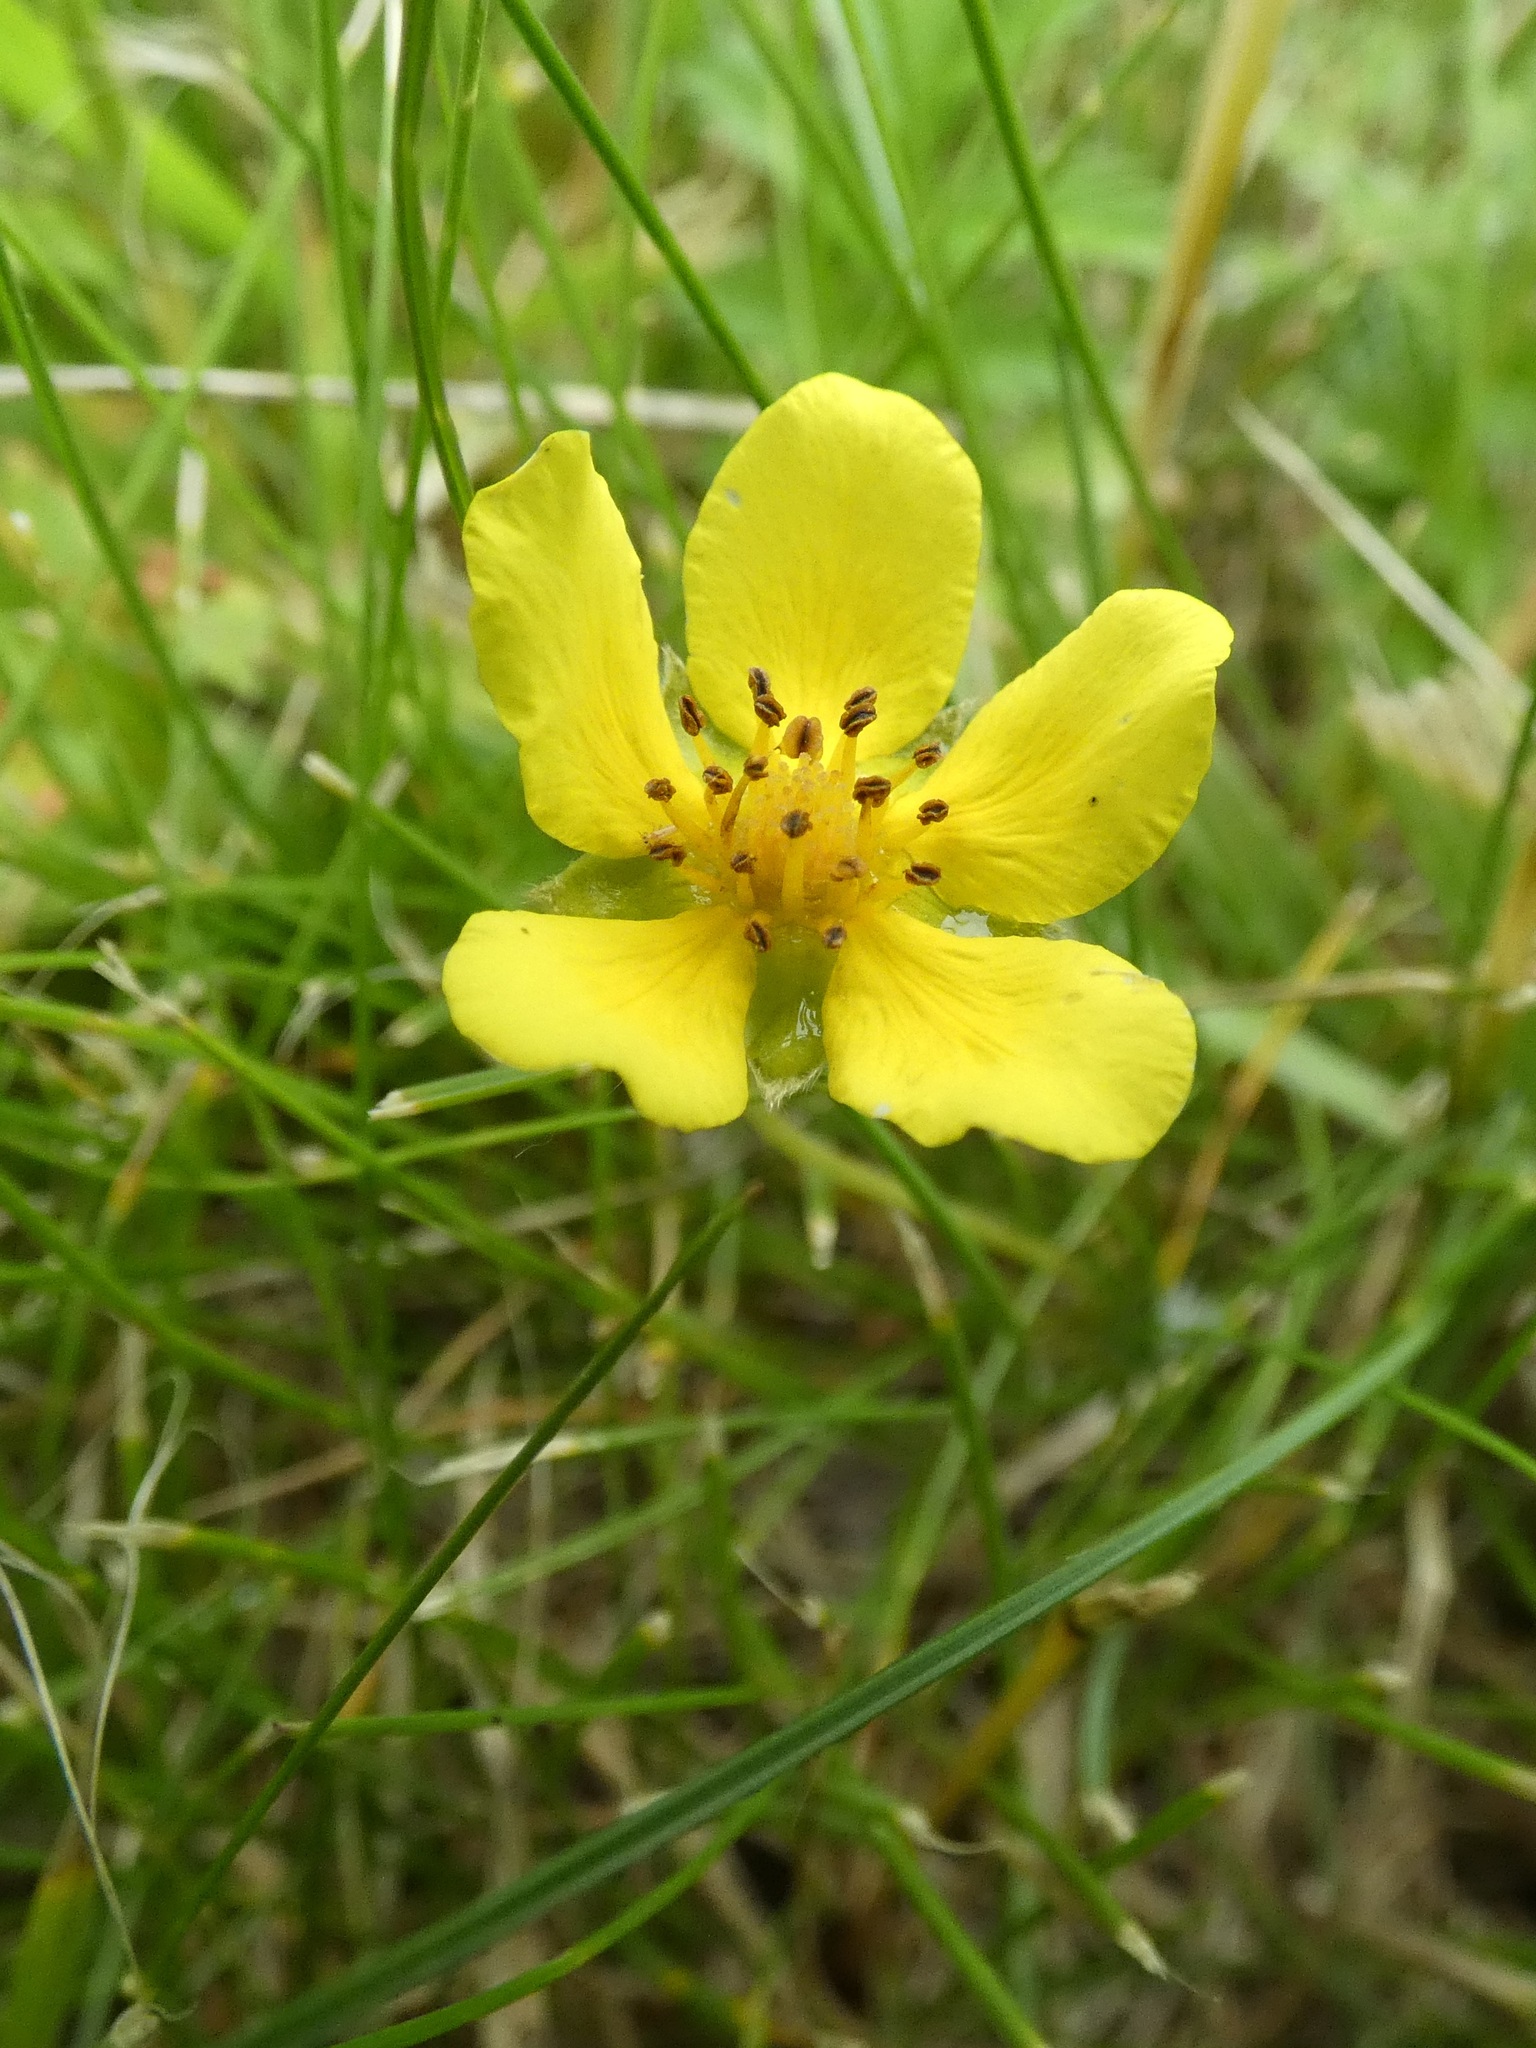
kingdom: Plantae
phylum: Tracheophyta
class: Magnoliopsida
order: Rosales
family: Rosaceae
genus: Argentina
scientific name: Argentina anserina
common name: Common silverweed
